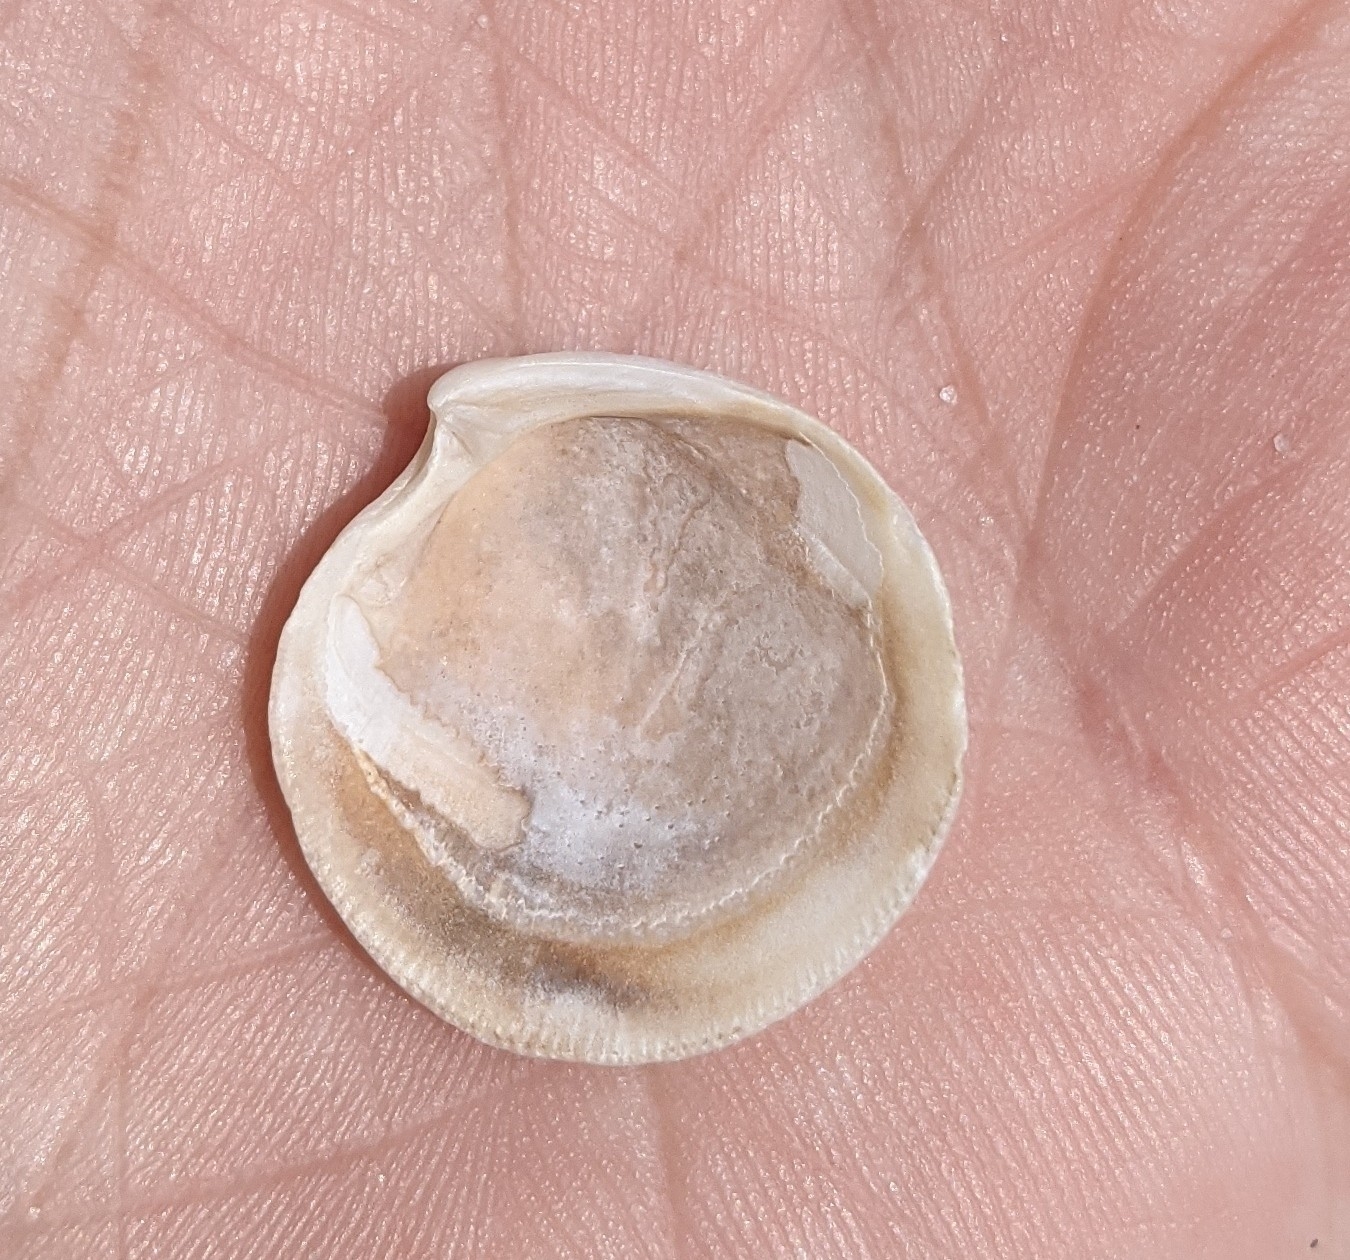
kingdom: Animalia
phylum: Mollusca
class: Bivalvia
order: Lucinida
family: Lucinidae
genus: Callucina
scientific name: Callucina keenae
